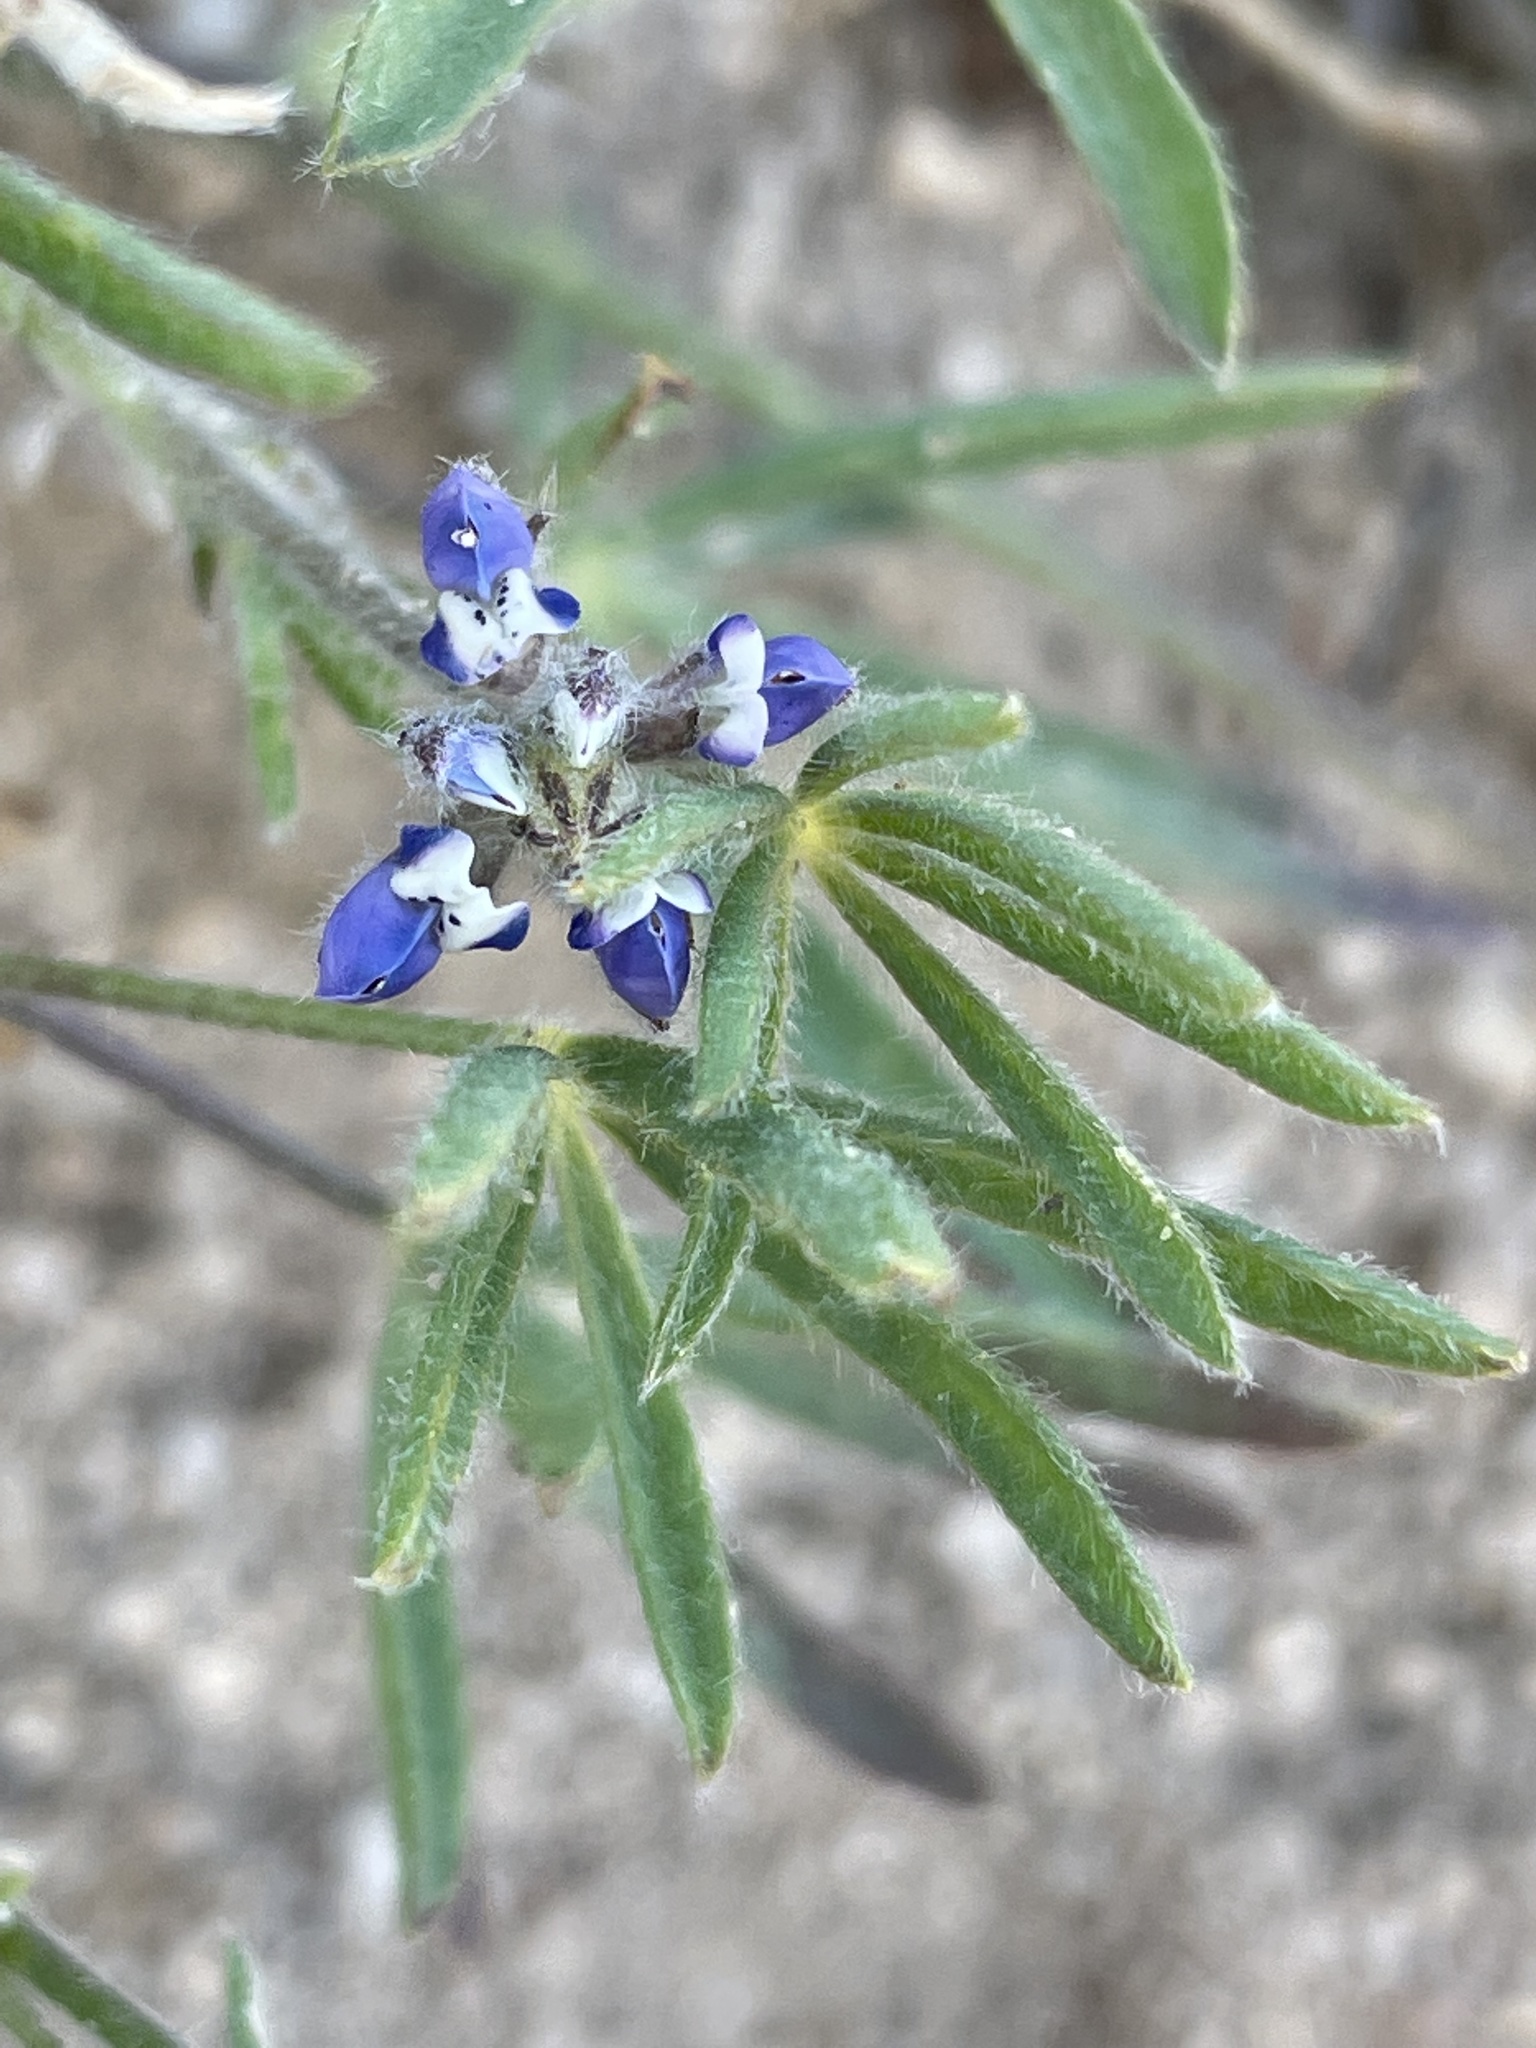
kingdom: Plantae
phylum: Tracheophyta
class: Magnoliopsida
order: Fabales
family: Fabaceae
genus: Lupinus
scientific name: Lupinus bicolor
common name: Miniature lupine
